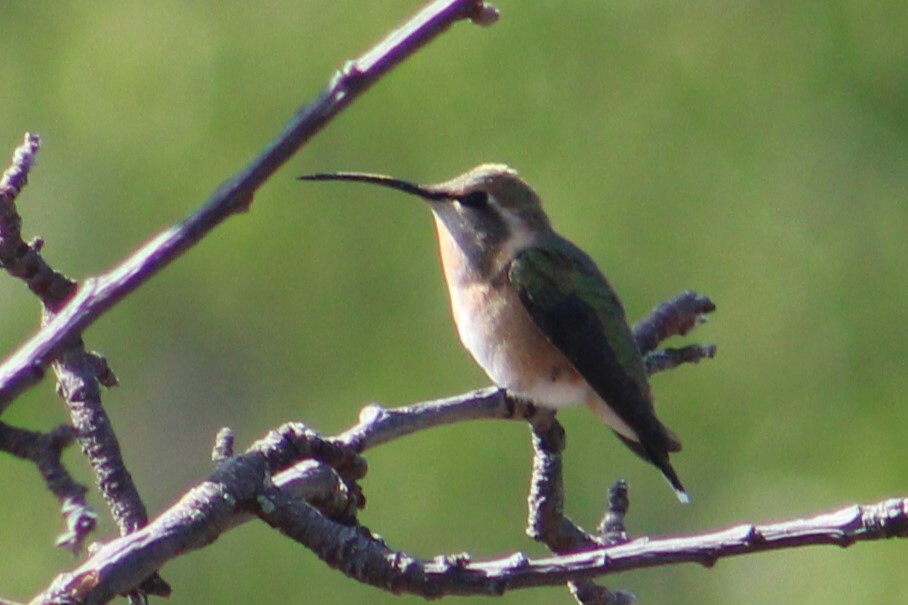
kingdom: Animalia
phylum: Chordata
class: Aves
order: Apodiformes
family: Trochilidae
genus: Calothorax
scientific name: Calothorax lucifer
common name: Lucifer sheartail
